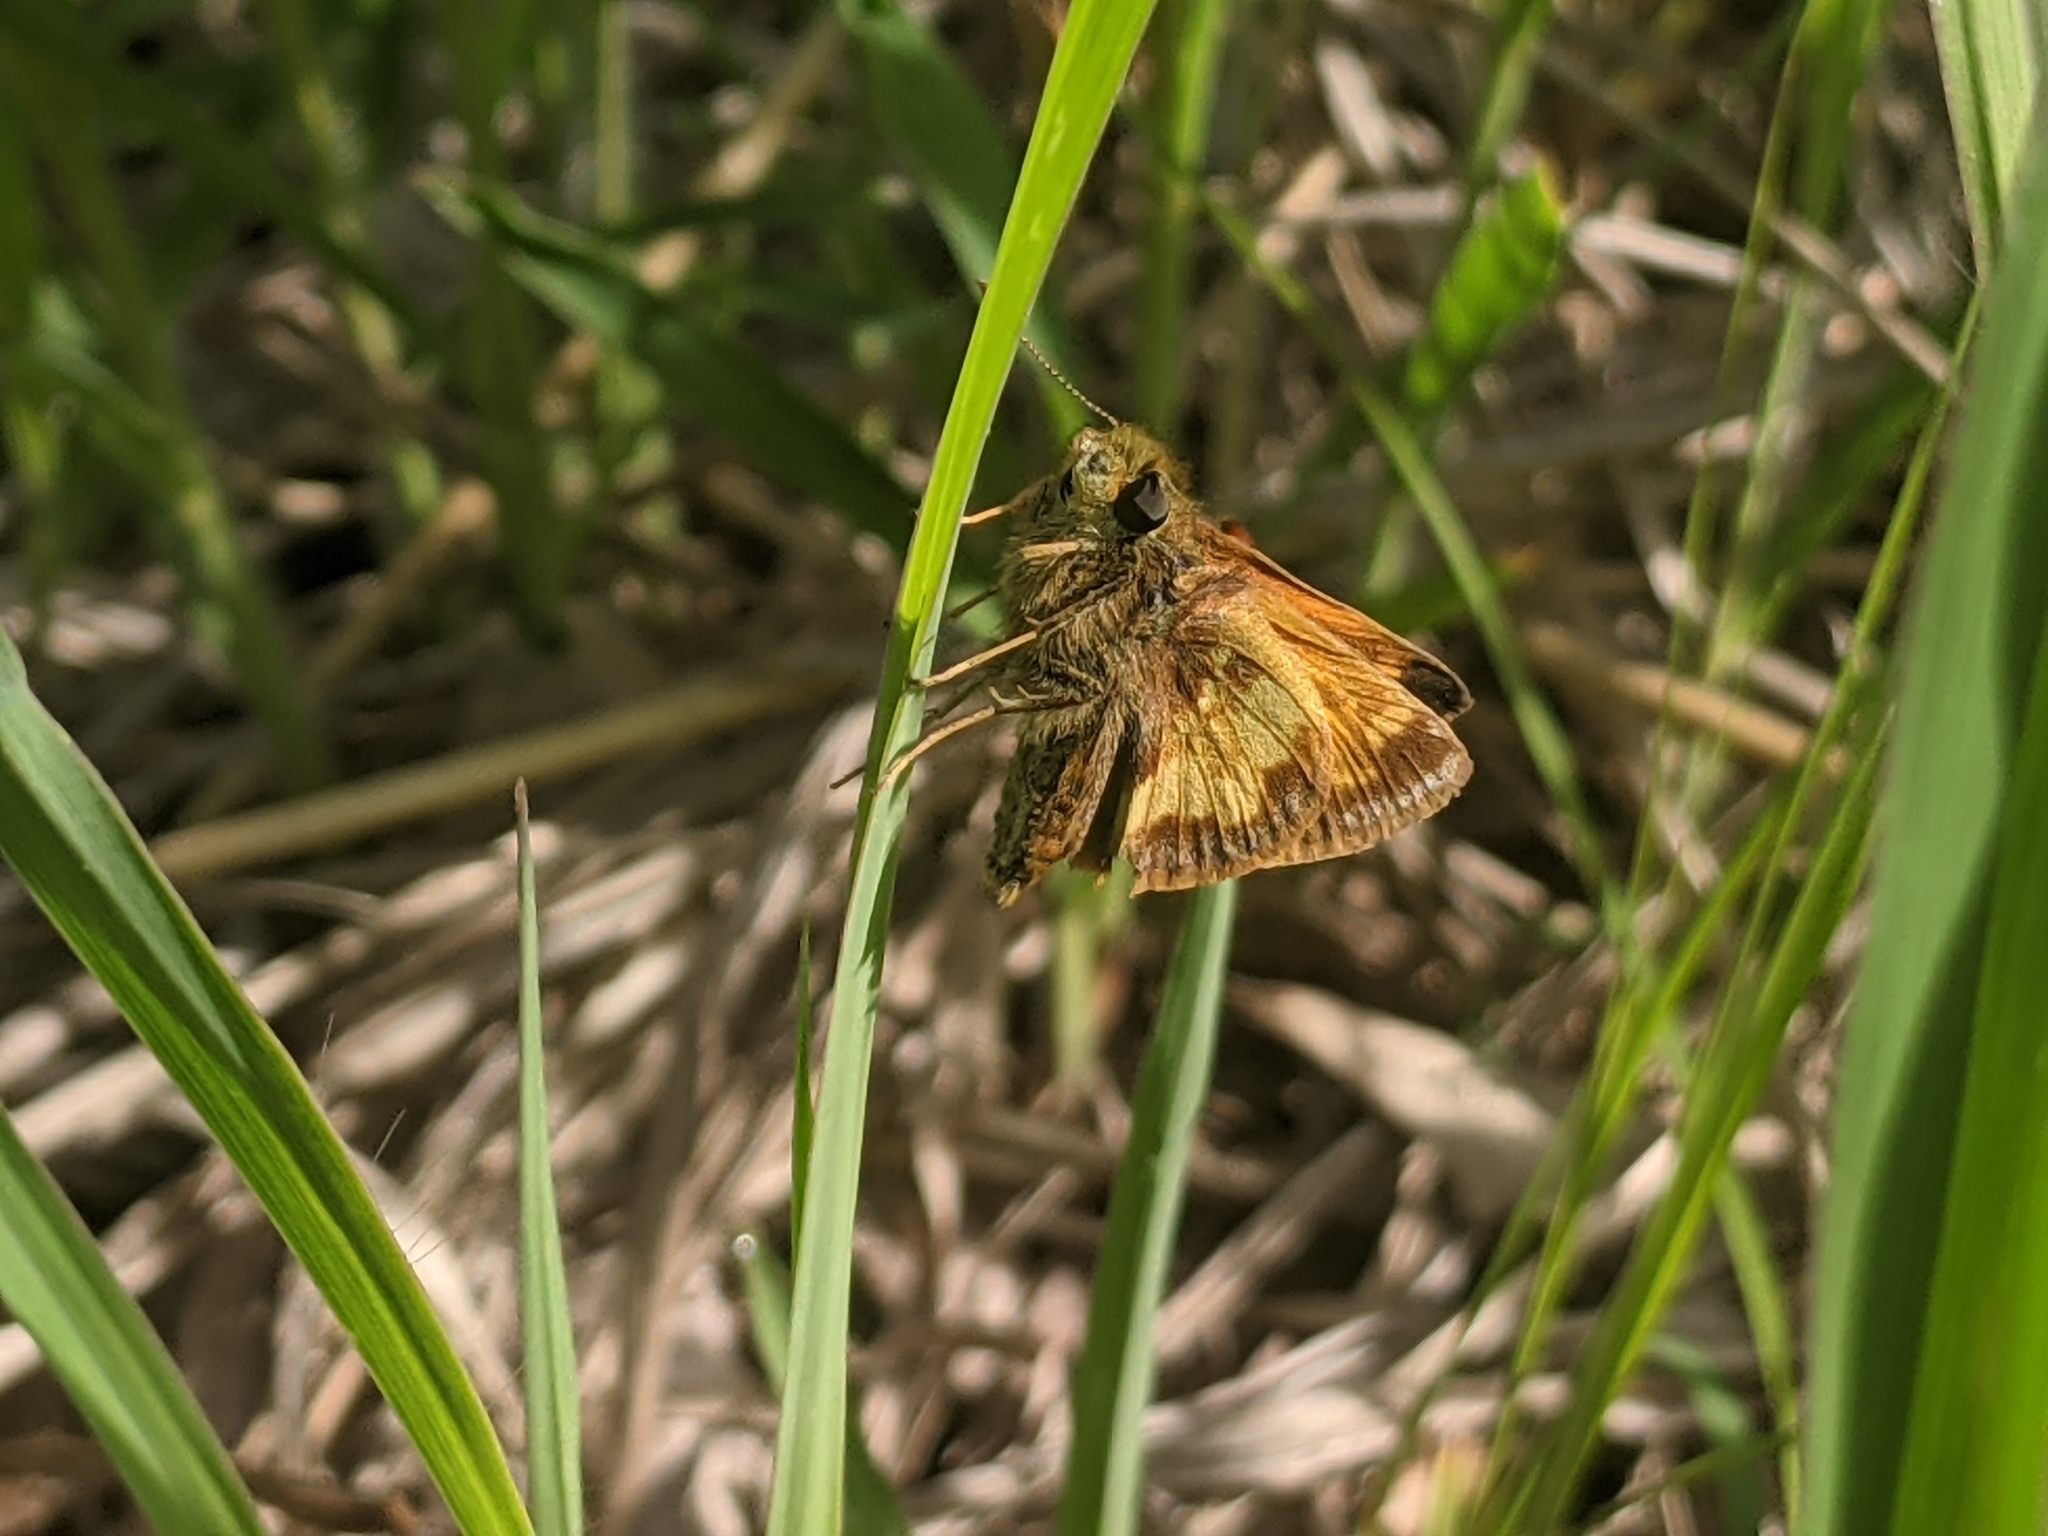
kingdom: Animalia
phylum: Arthropoda
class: Insecta
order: Lepidoptera
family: Hesperiidae
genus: Lon
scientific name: Lon hobomok
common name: Hobomok skipper
